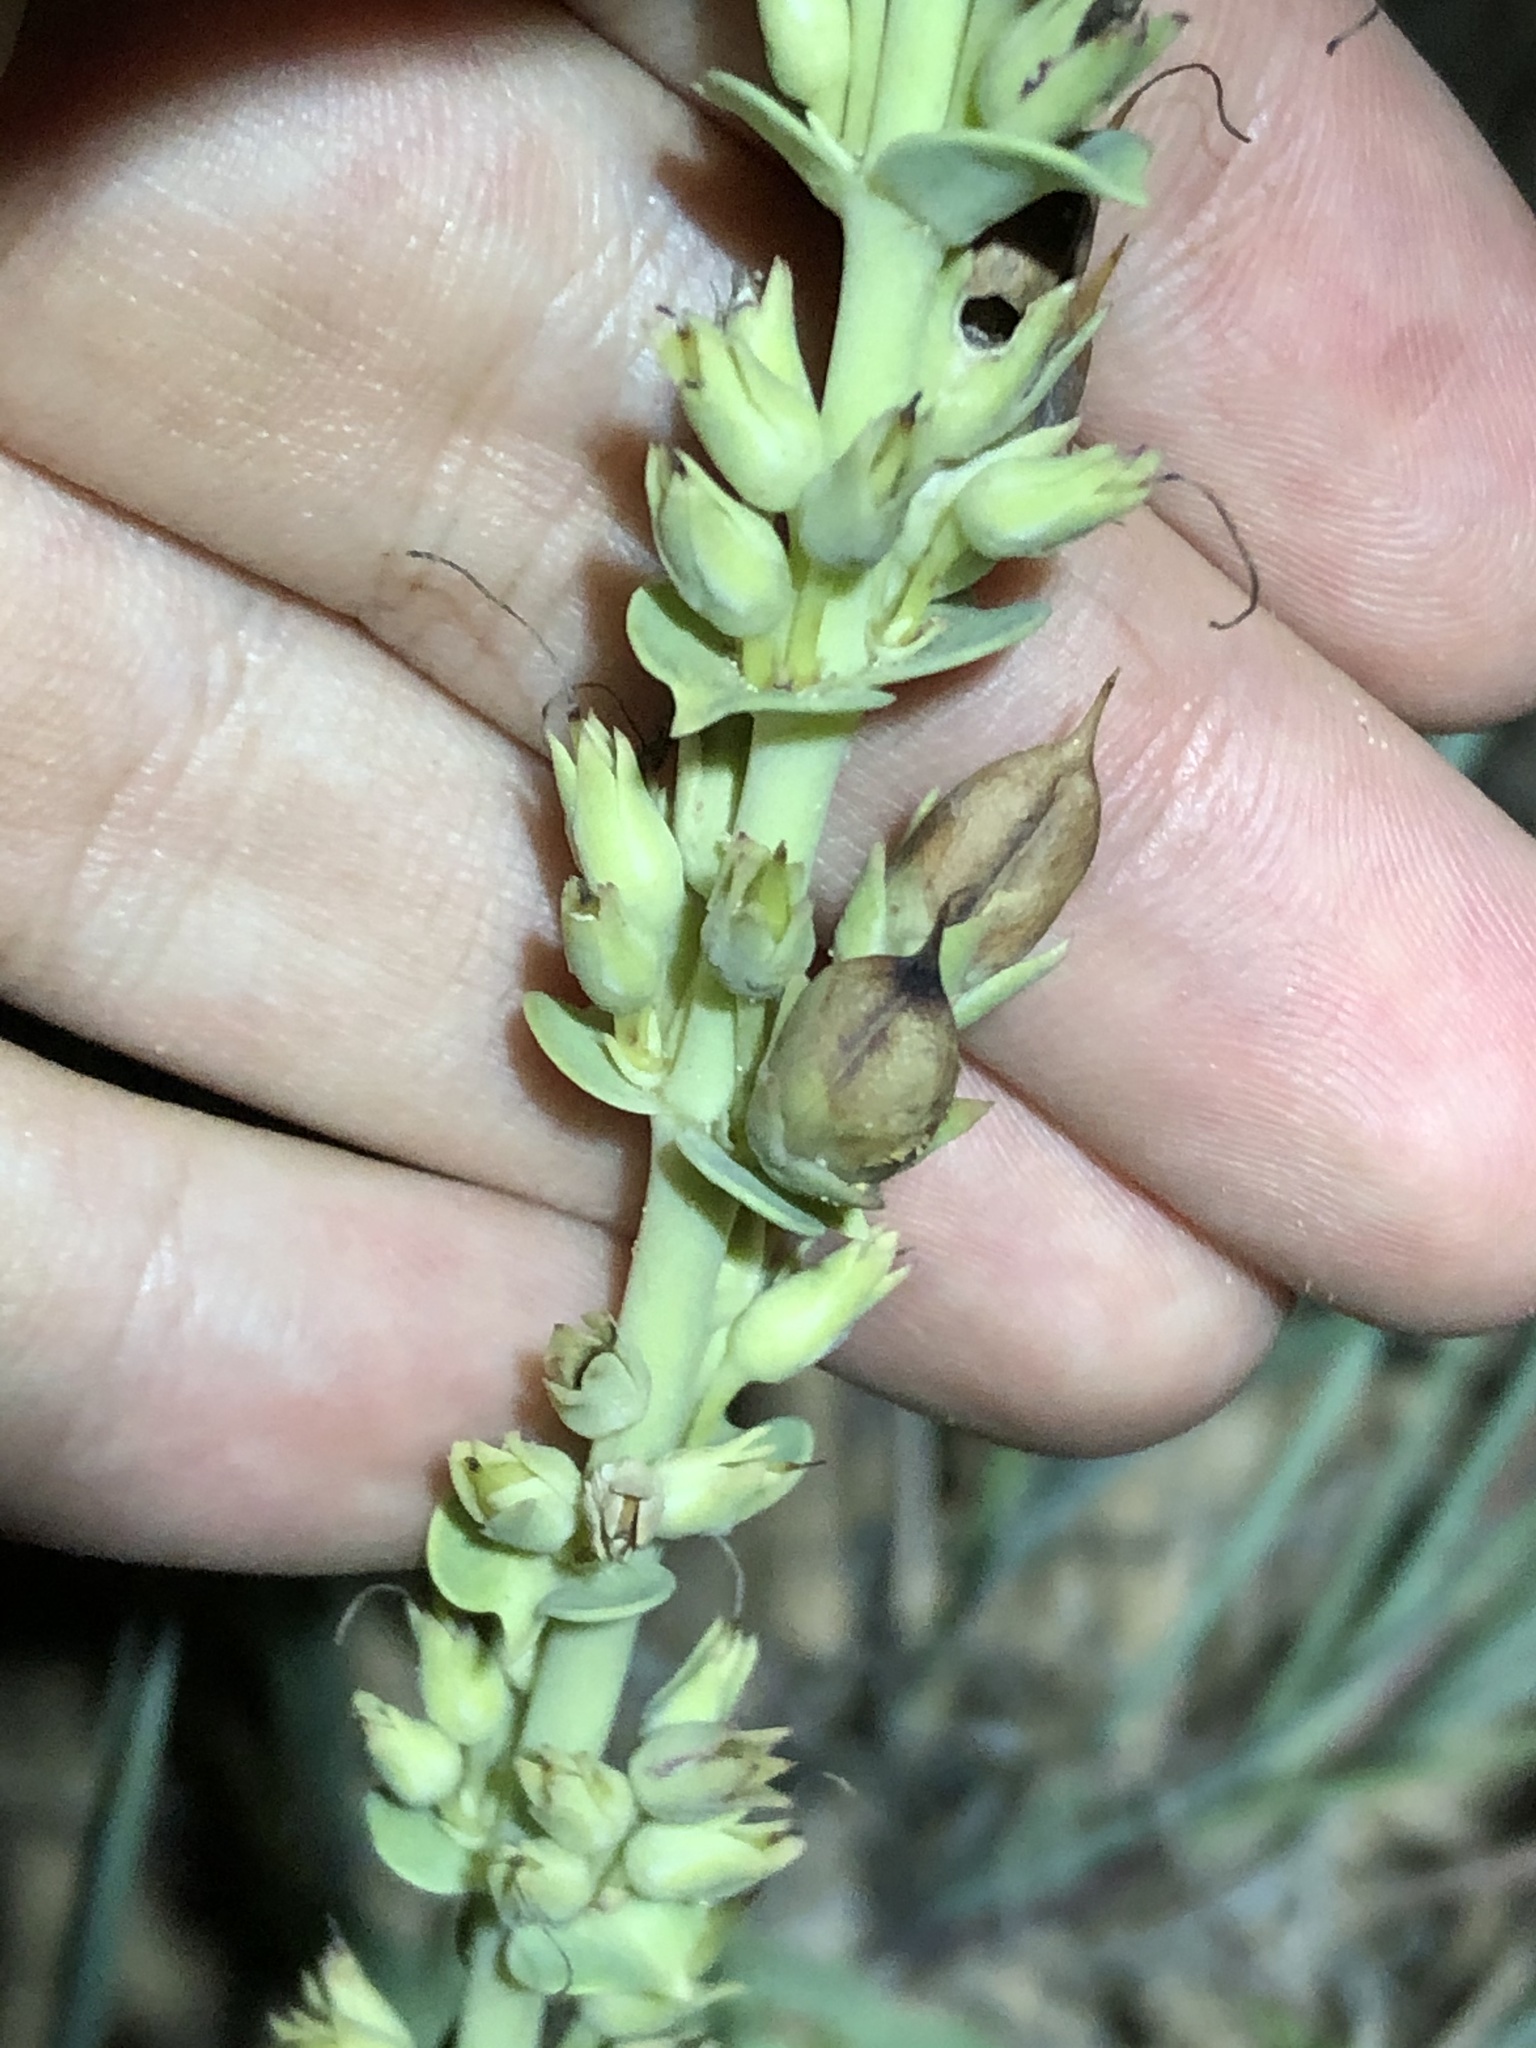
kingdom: Plantae
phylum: Tracheophyta
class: Magnoliopsida
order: Lamiales
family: Plantaginaceae
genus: Penstemon
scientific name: Penstemon buckleyi
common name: Buckley's penstemon
